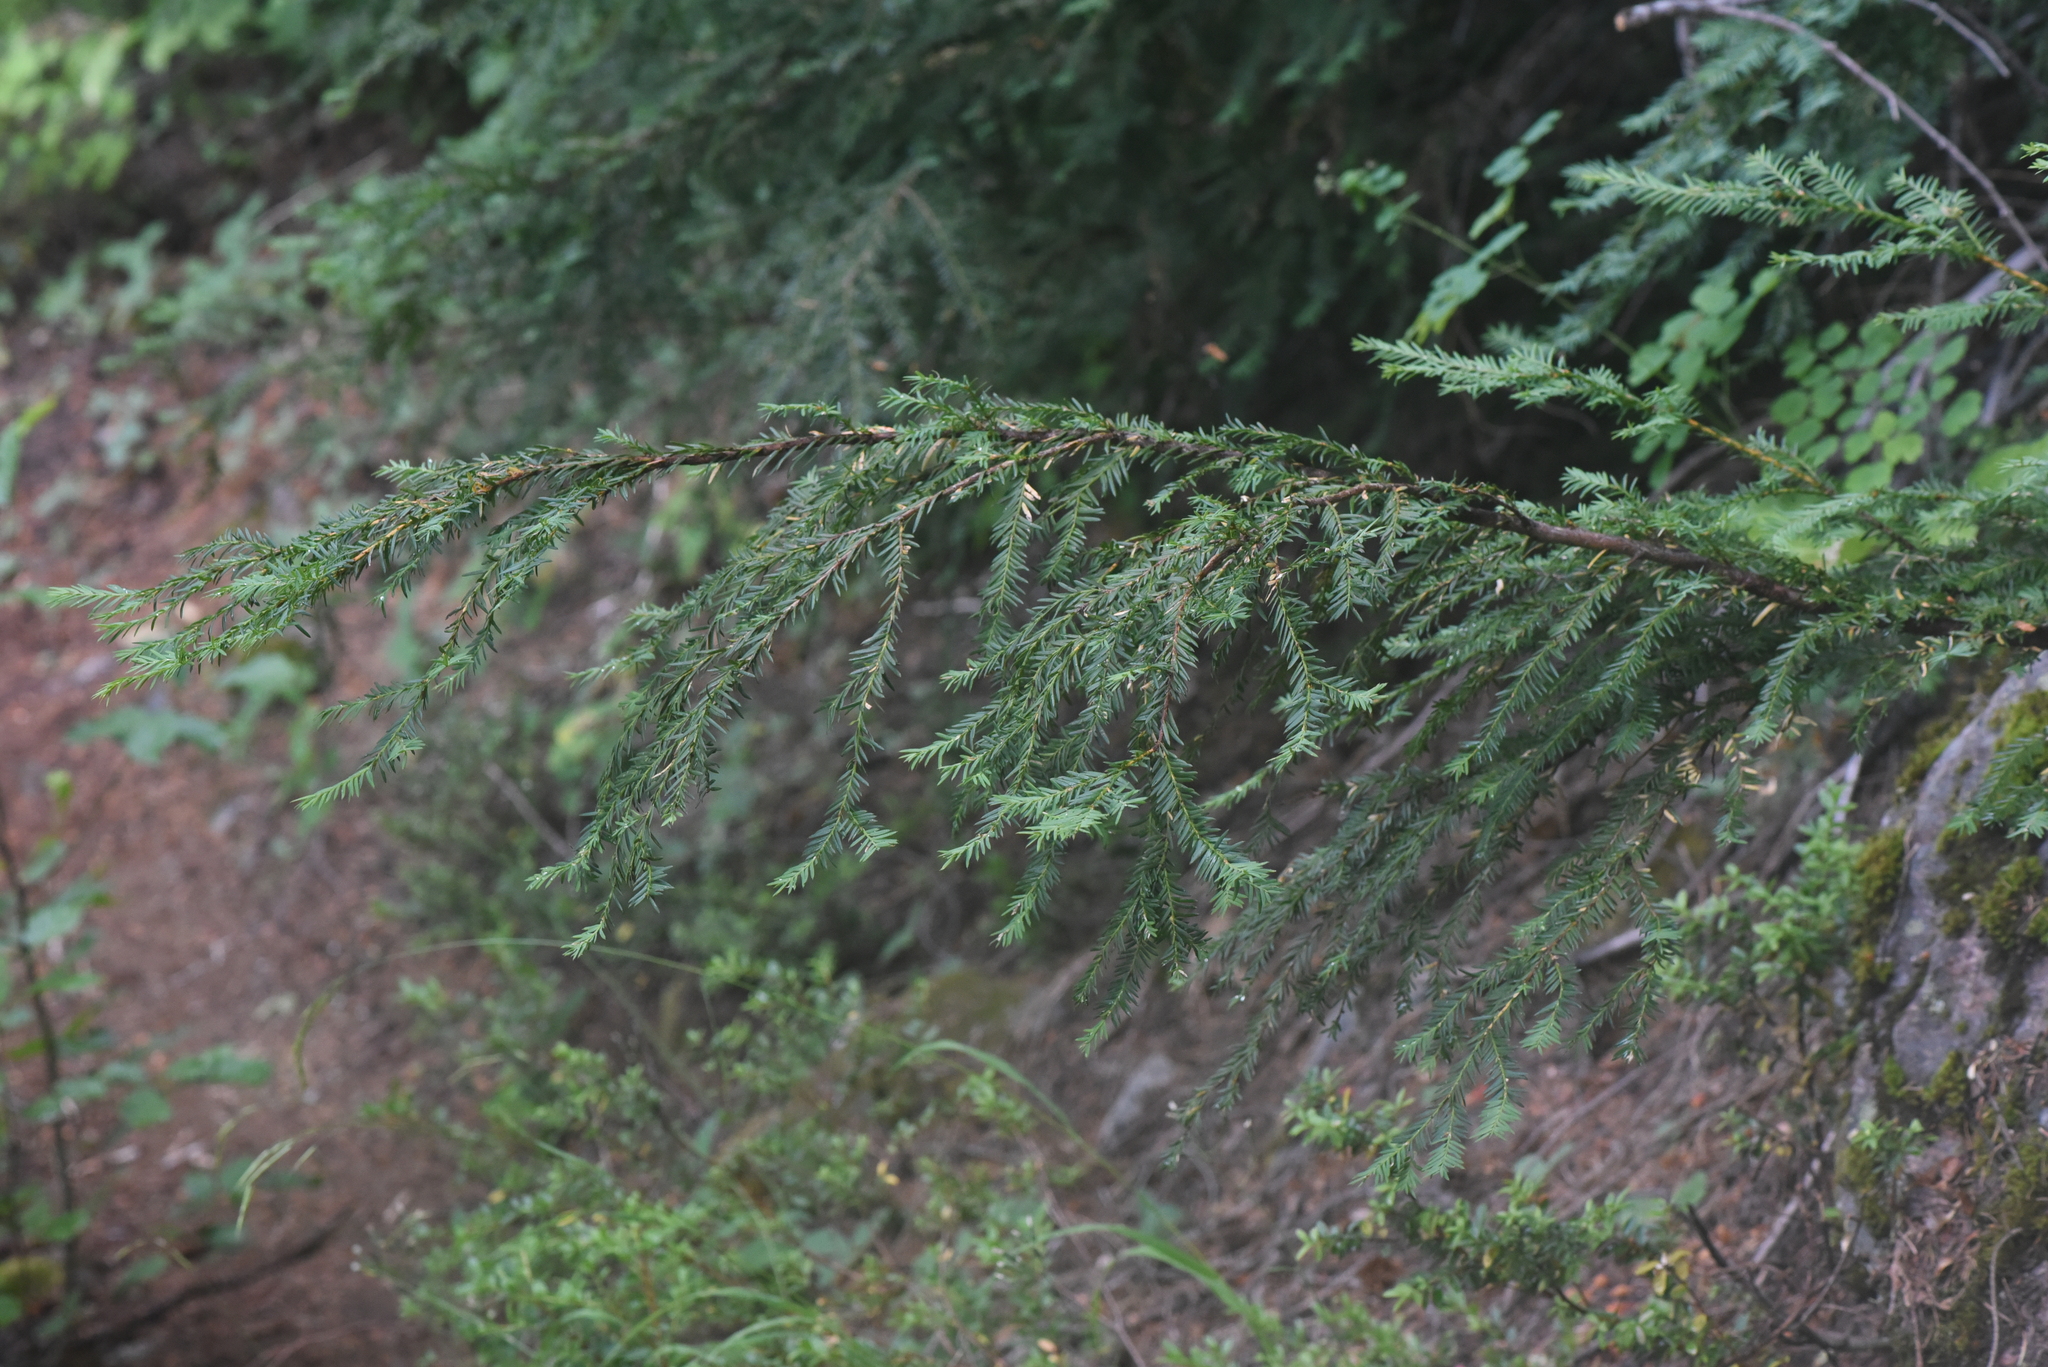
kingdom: Plantae
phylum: Tracheophyta
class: Pinopsida
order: Pinales
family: Taxaceae
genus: Taxus
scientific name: Taxus brevifolia
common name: Pacific yew
